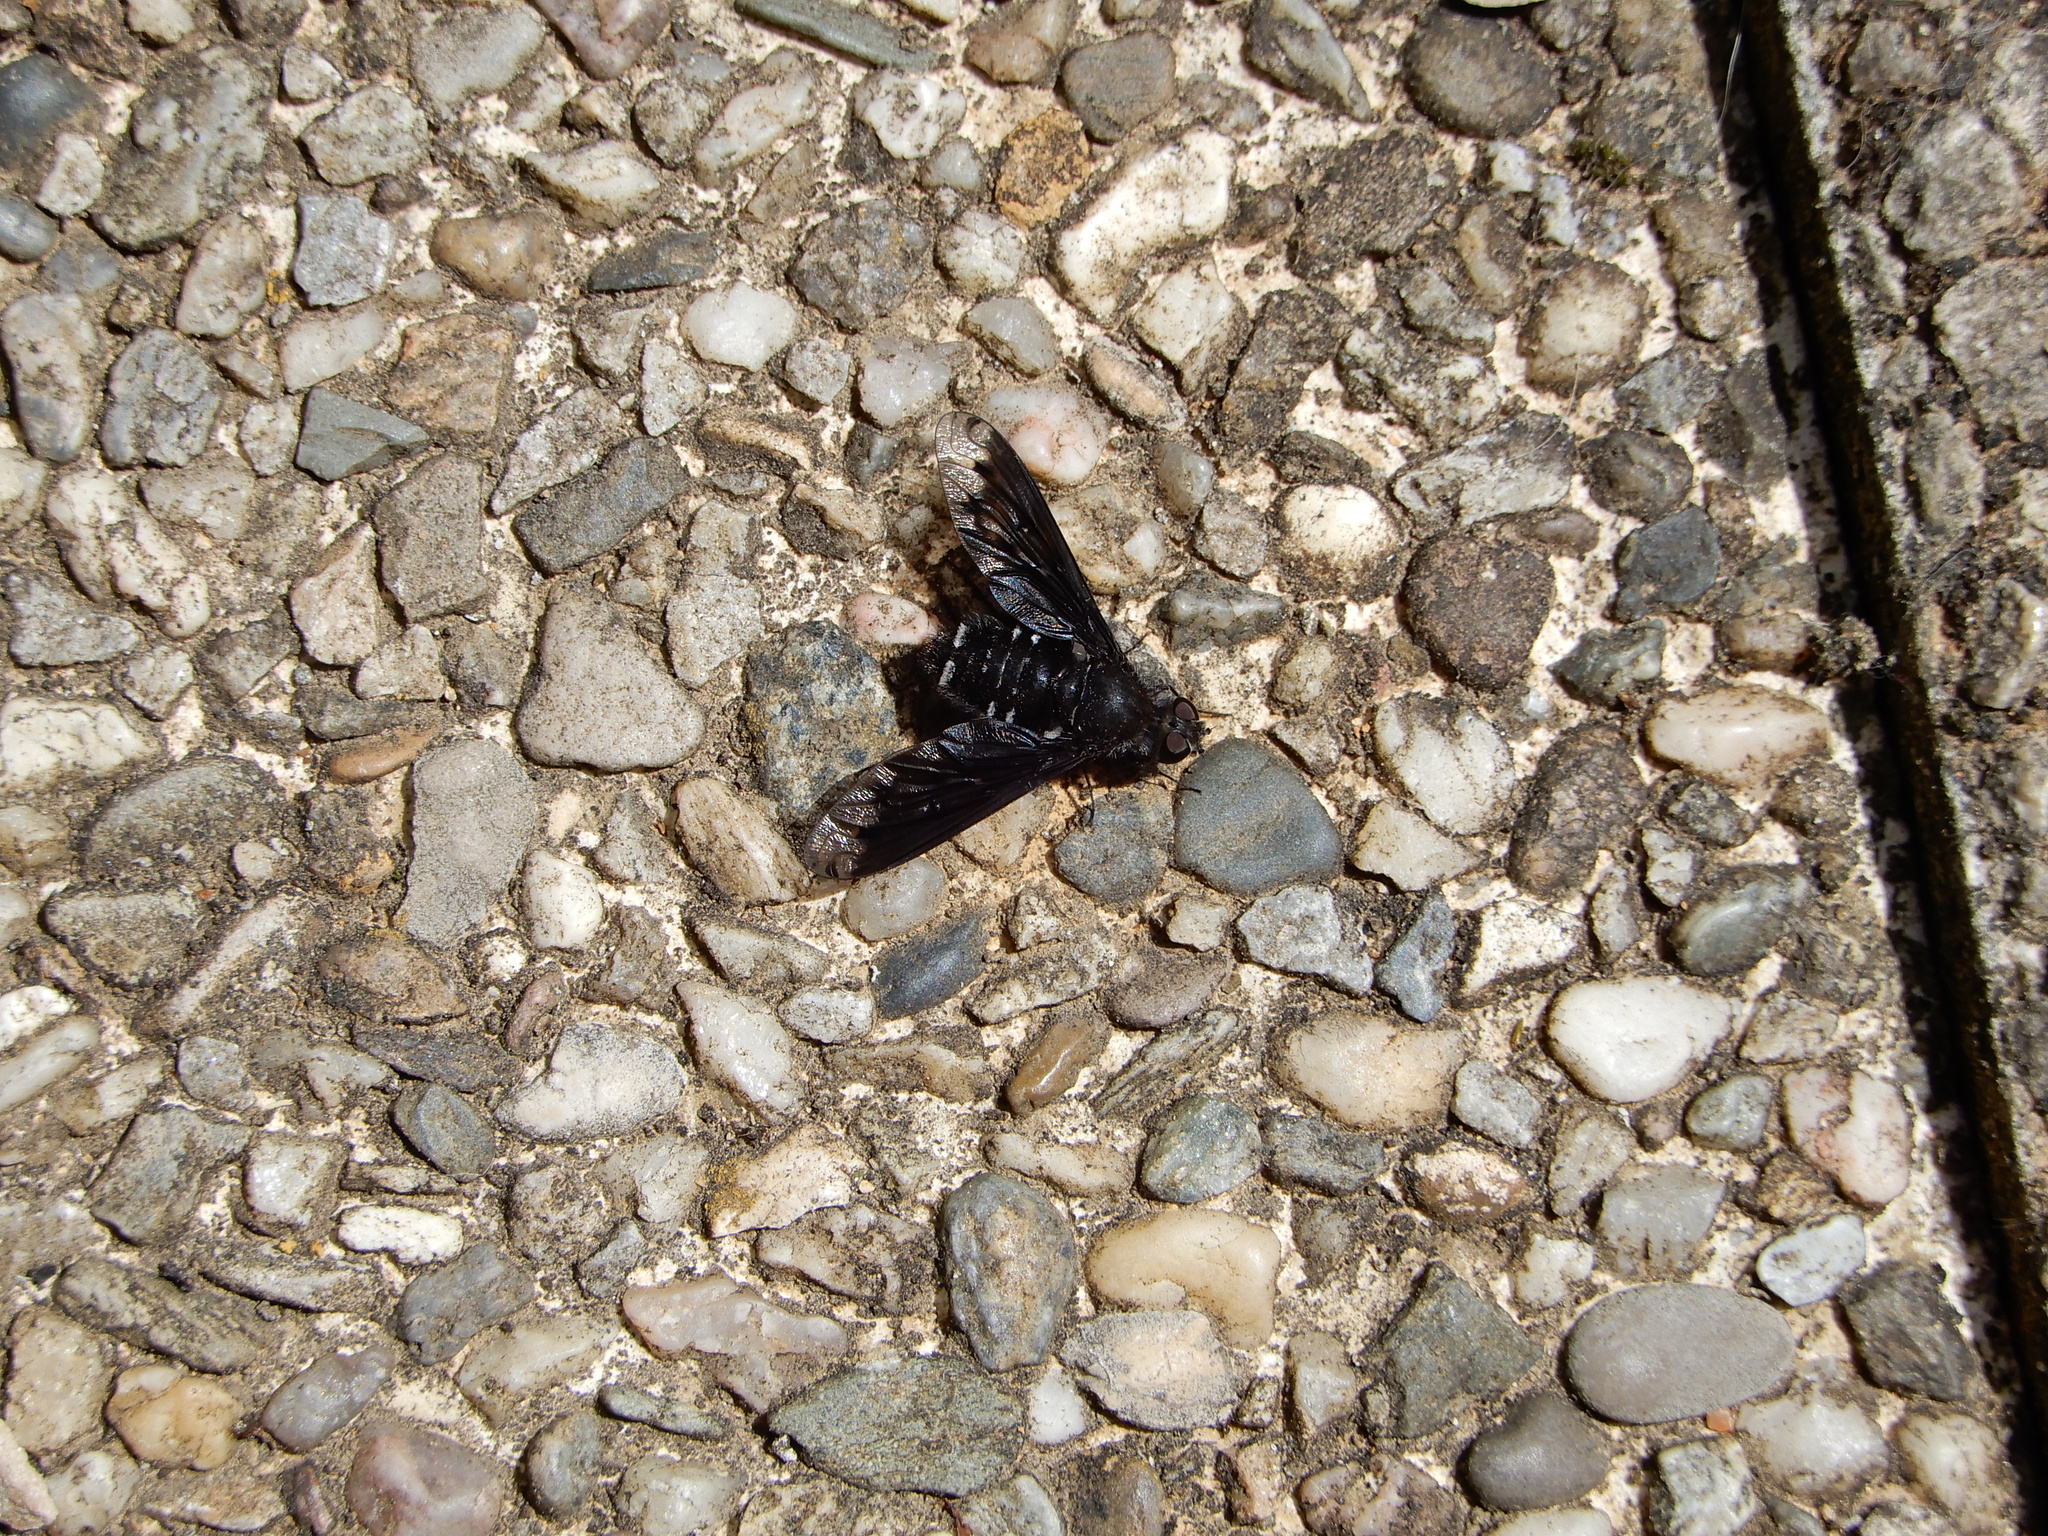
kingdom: Animalia
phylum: Arthropoda
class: Insecta
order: Diptera
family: Bombyliidae
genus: Anthrax
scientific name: Anthrax anthrax
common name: Anthracite bee-fly
